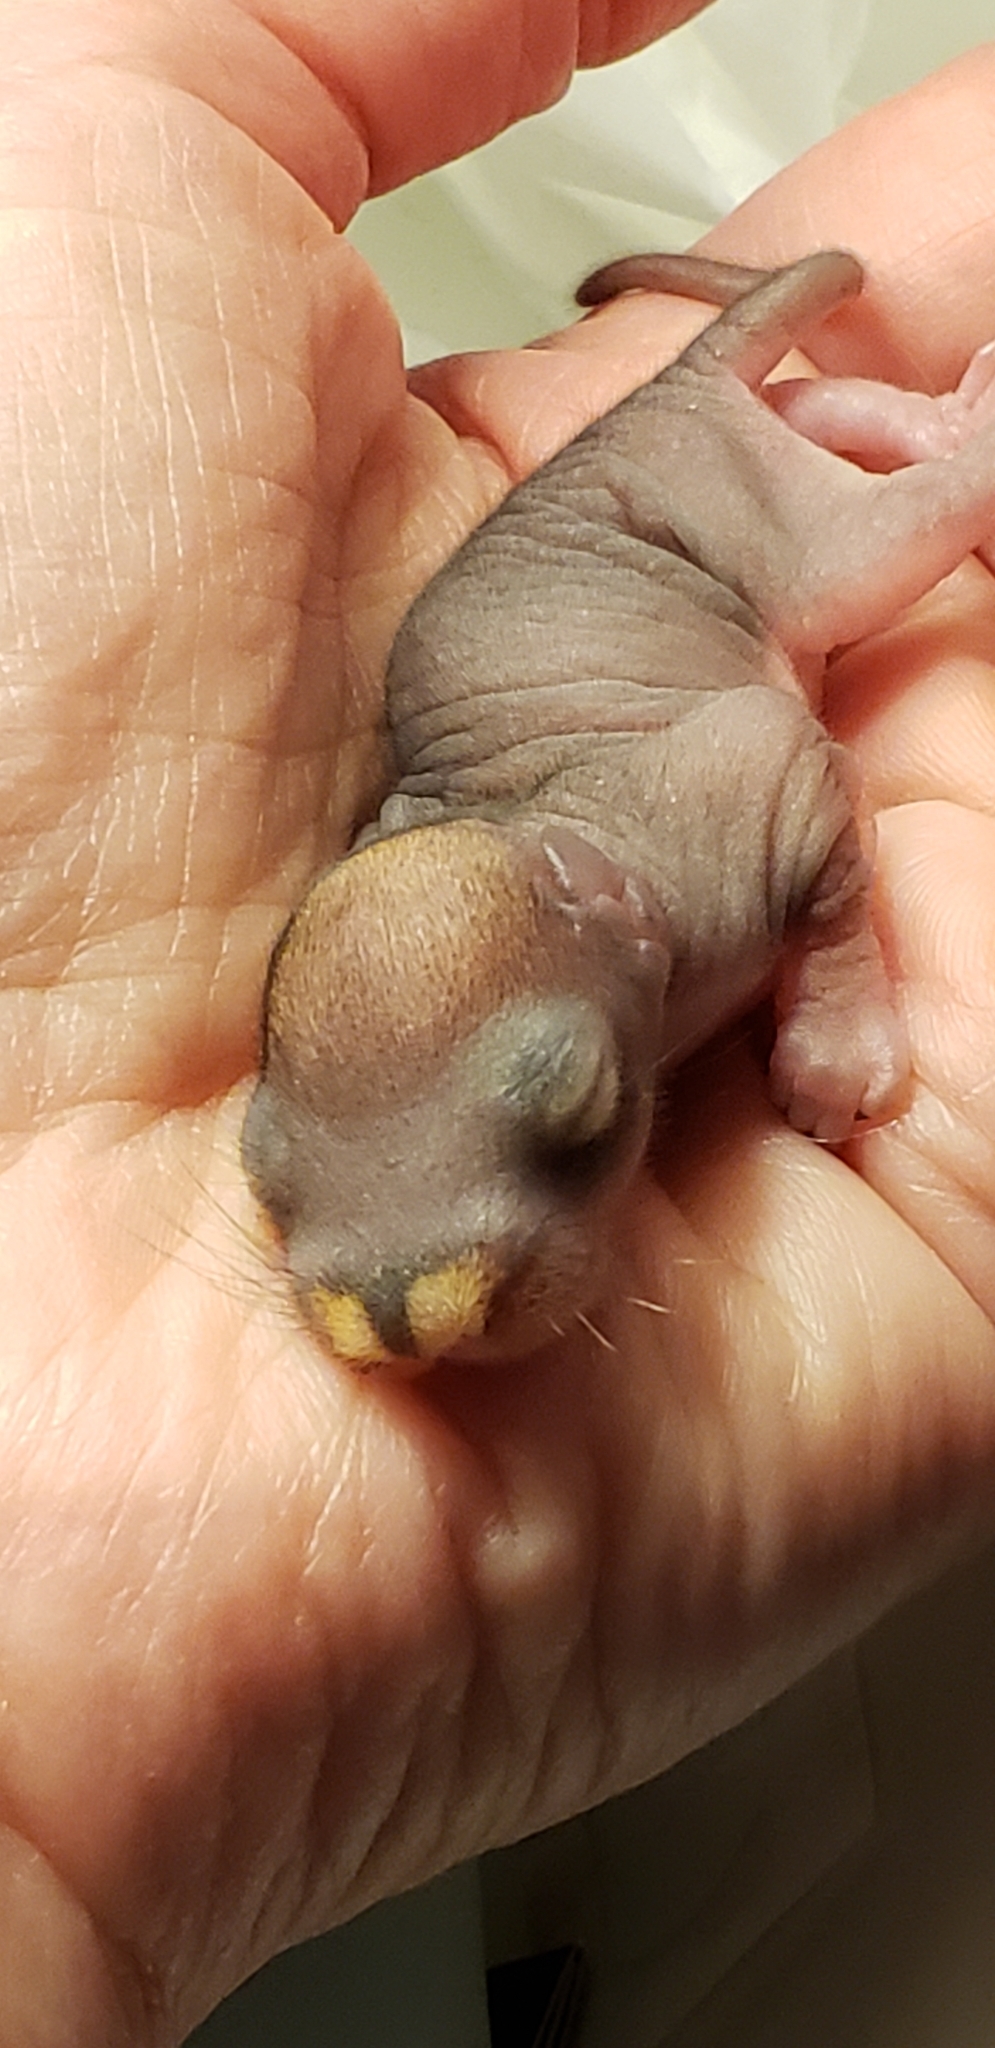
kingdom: Animalia
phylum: Chordata
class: Mammalia
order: Rodentia
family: Sciuridae
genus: Tamiasciurus
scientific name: Tamiasciurus hudsonicus
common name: Red squirrel
